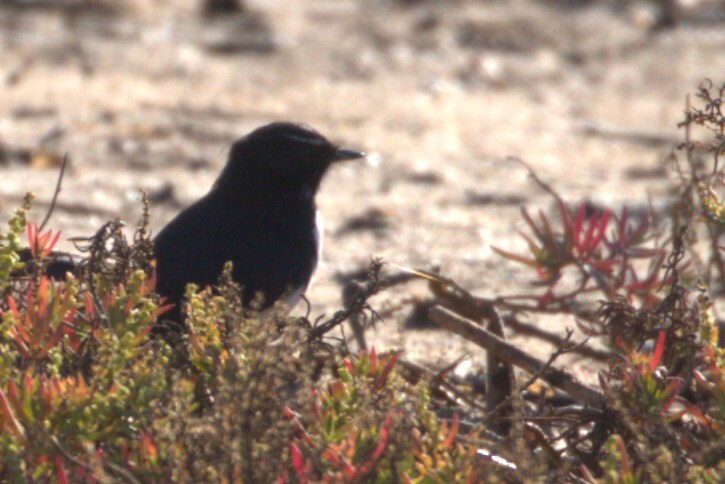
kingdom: Animalia
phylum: Chordata
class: Aves
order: Passeriformes
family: Rhipiduridae
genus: Rhipidura
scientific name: Rhipidura leucophrys
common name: Willie wagtail
